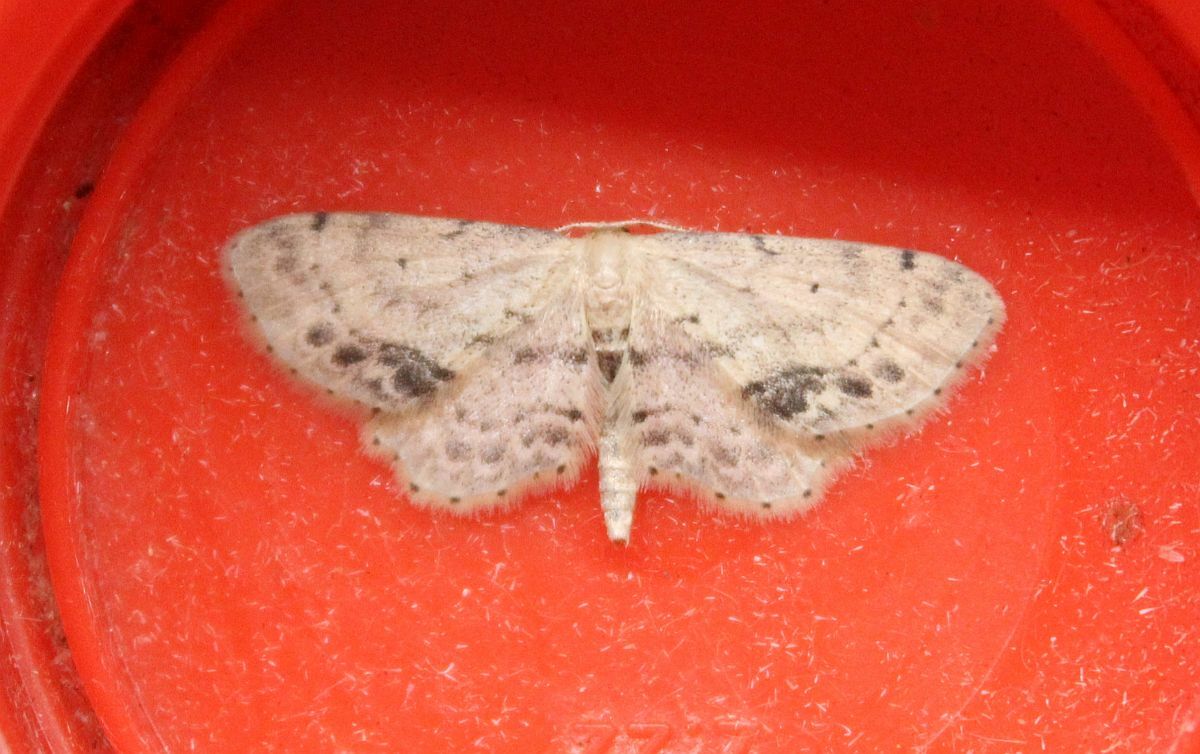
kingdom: Animalia
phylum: Arthropoda
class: Insecta
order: Lepidoptera
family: Geometridae
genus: Idaea
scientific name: Idaea dimidiata
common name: Single-dotted wave
